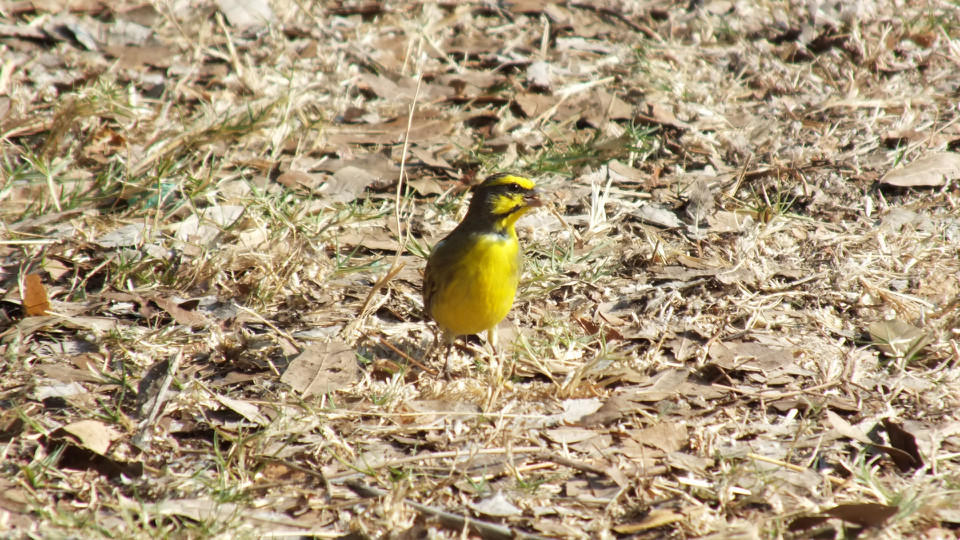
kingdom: Animalia
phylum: Chordata
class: Aves
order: Passeriformes
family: Fringillidae
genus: Crithagra
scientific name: Crithagra mozambica
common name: Yellow-fronted canary
